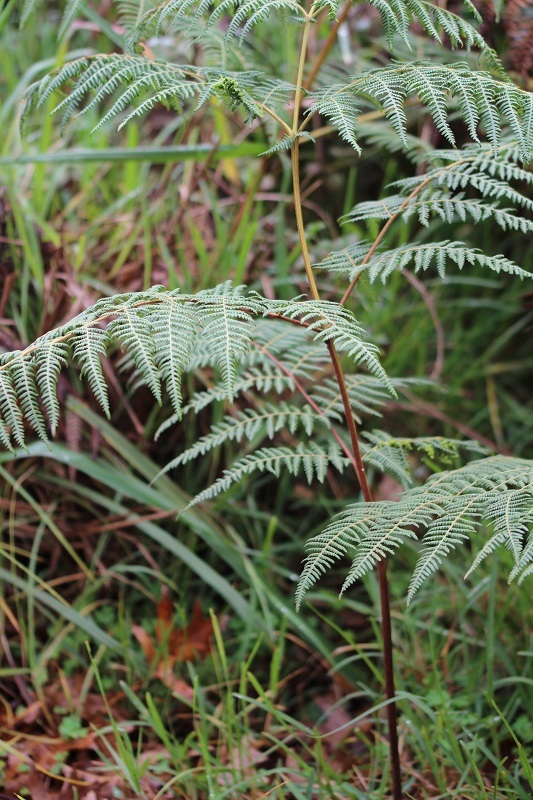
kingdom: Plantae
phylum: Tracheophyta
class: Polypodiopsida
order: Polypodiales
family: Dennstaedtiaceae
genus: Pteridium
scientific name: Pteridium aquilinum
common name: Bracken
